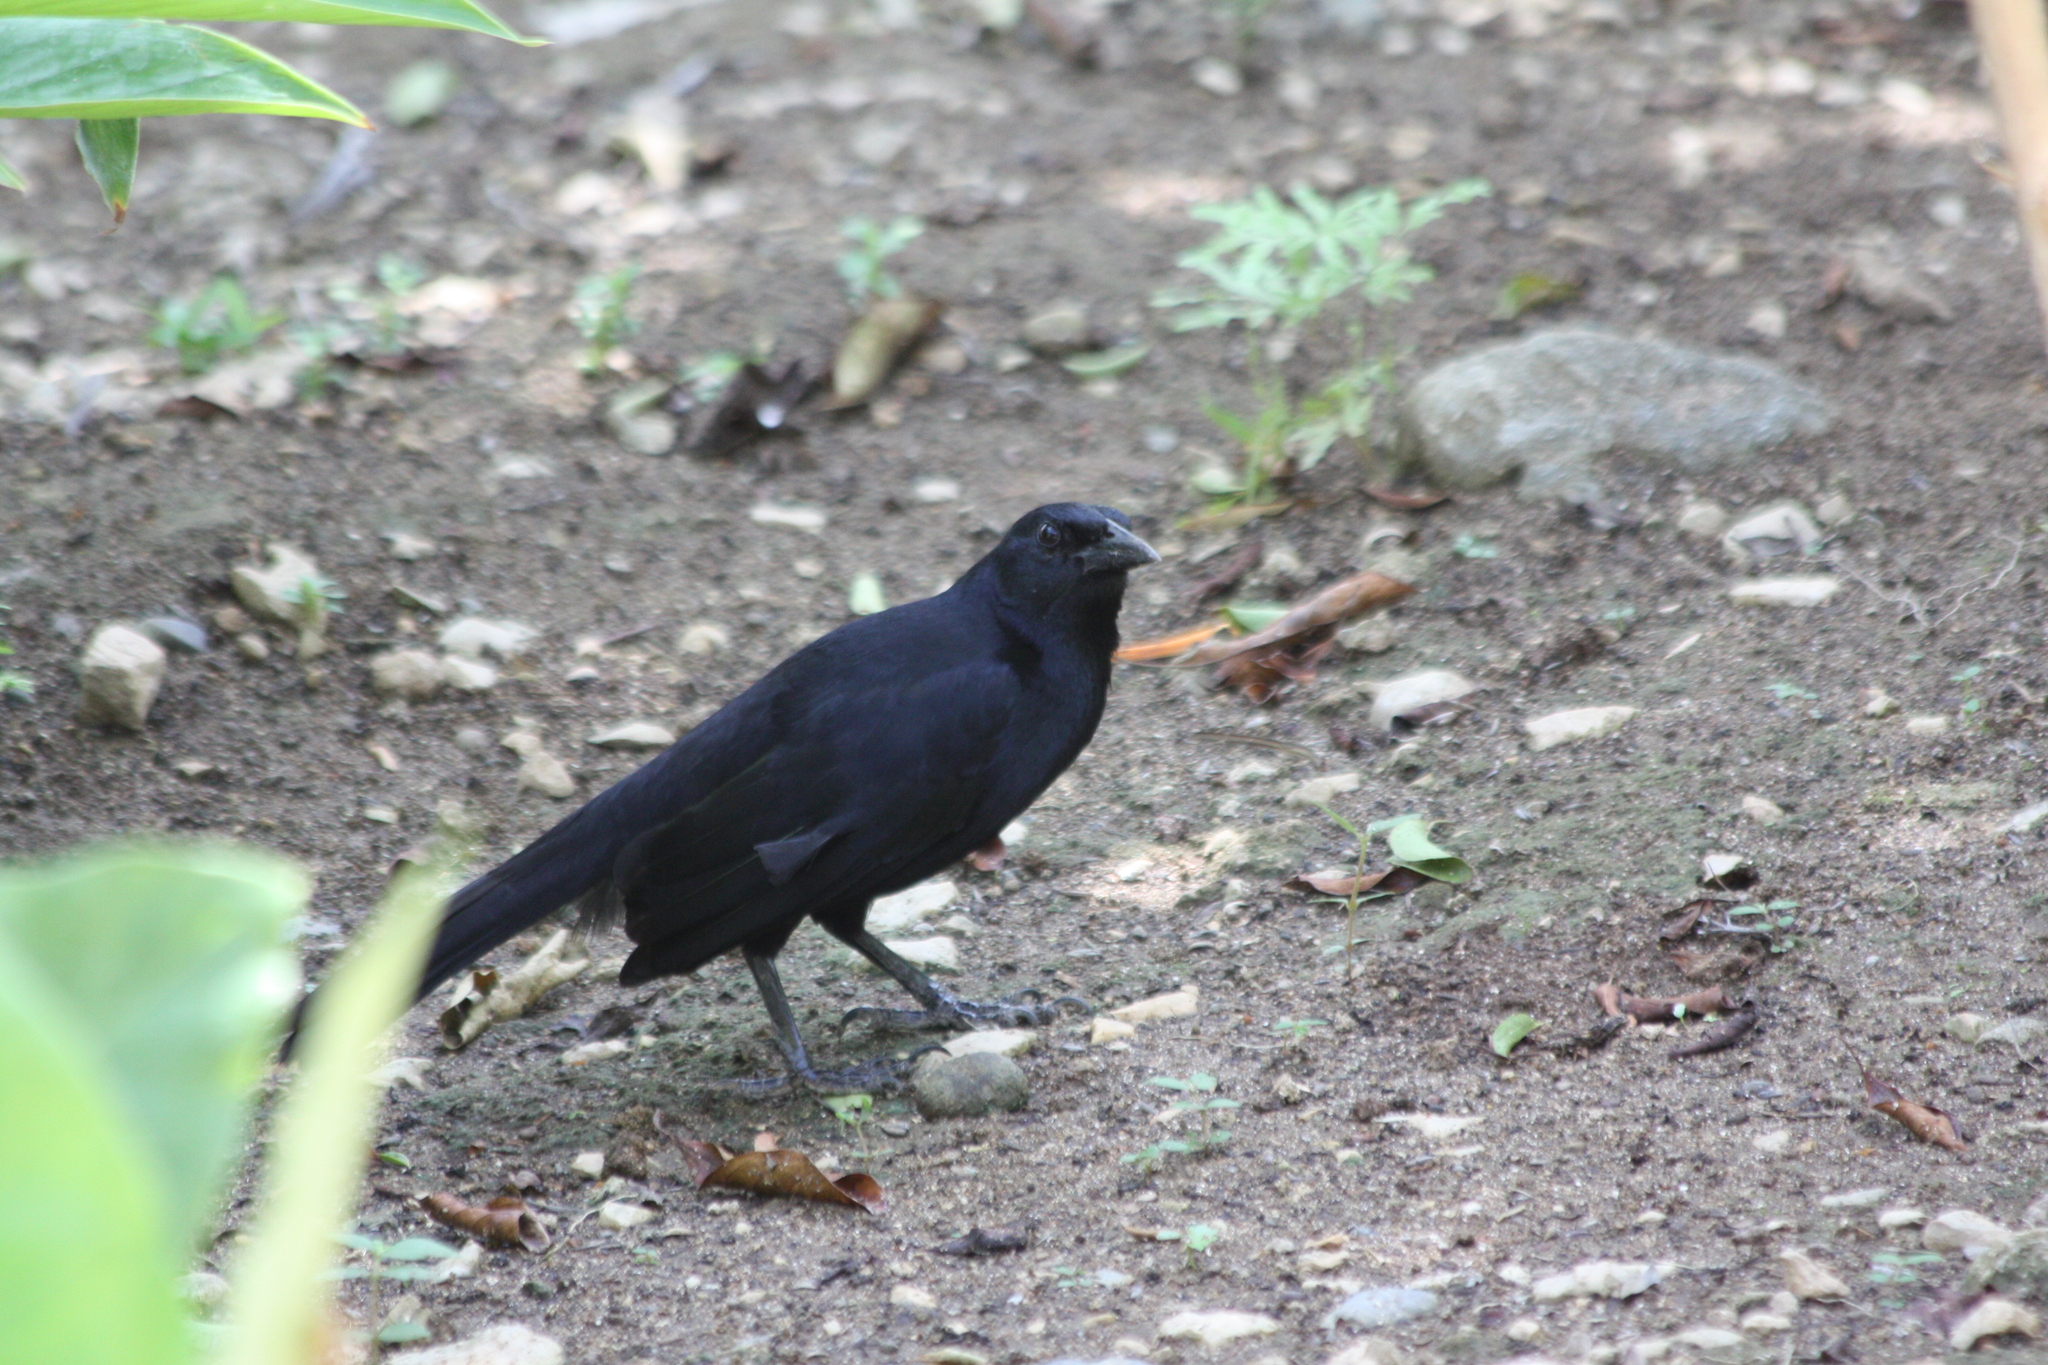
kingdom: Animalia
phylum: Chordata
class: Aves
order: Passeriformes
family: Icteridae
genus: Dives
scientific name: Dives dives
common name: Melodious blackbird
